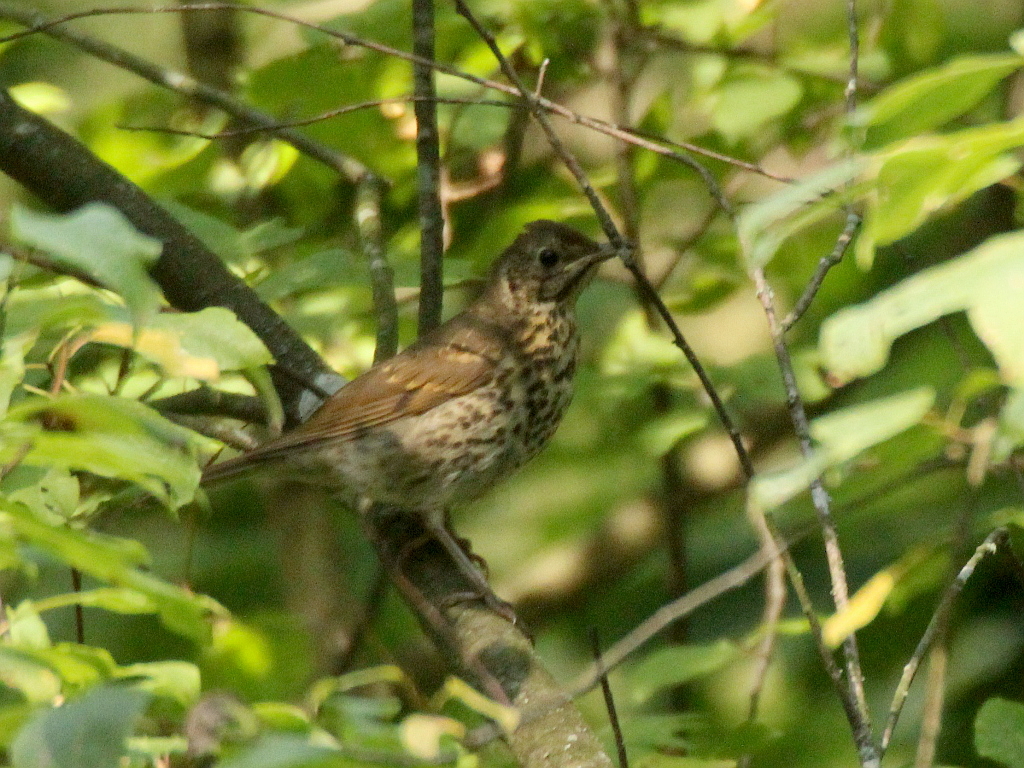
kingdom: Animalia
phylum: Chordata
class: Aves
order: Passeriformes
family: Turdidae
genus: Turdus
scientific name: Turdus philomelos
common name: Song thrush
